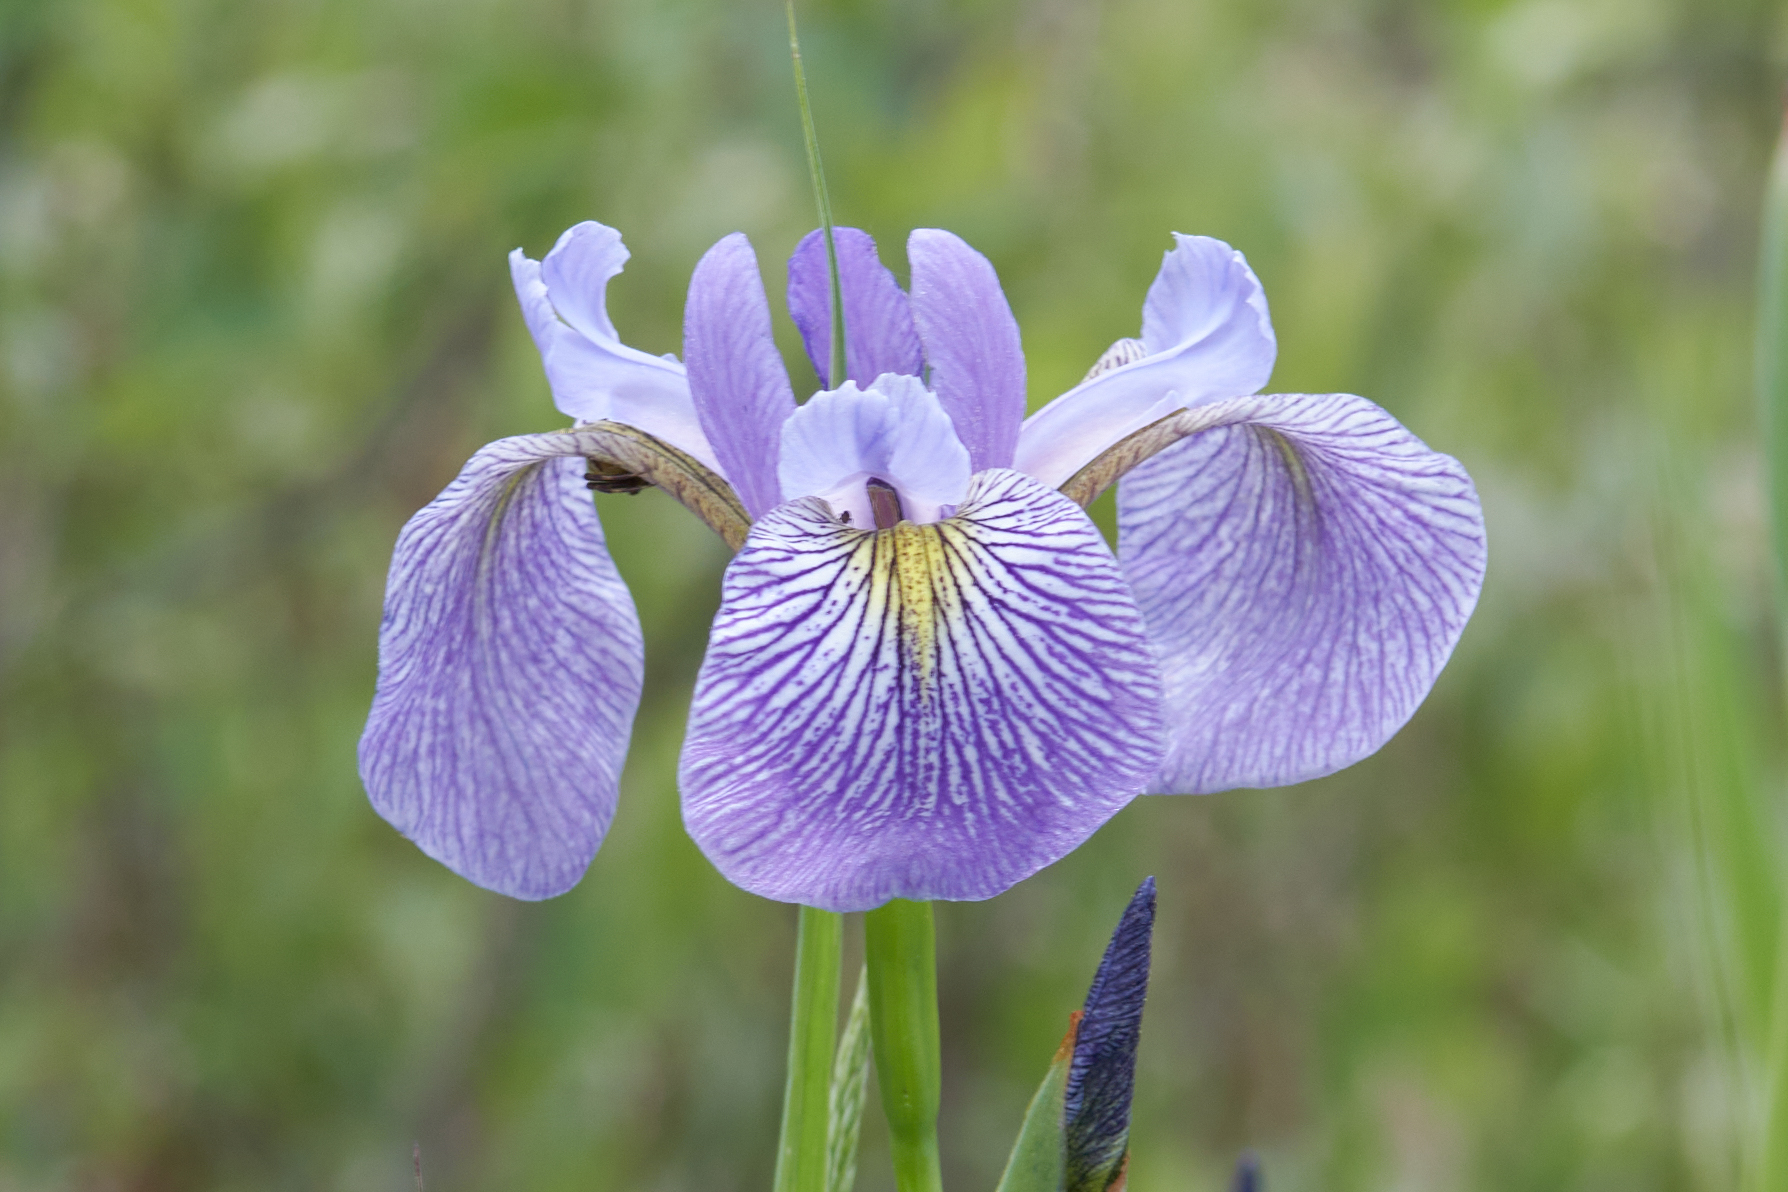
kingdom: Plantae
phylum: Tracheophyta
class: Liliopsida
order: Asparagales
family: Iridaceae
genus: Iris
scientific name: Iris versicolor
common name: Purple iris
